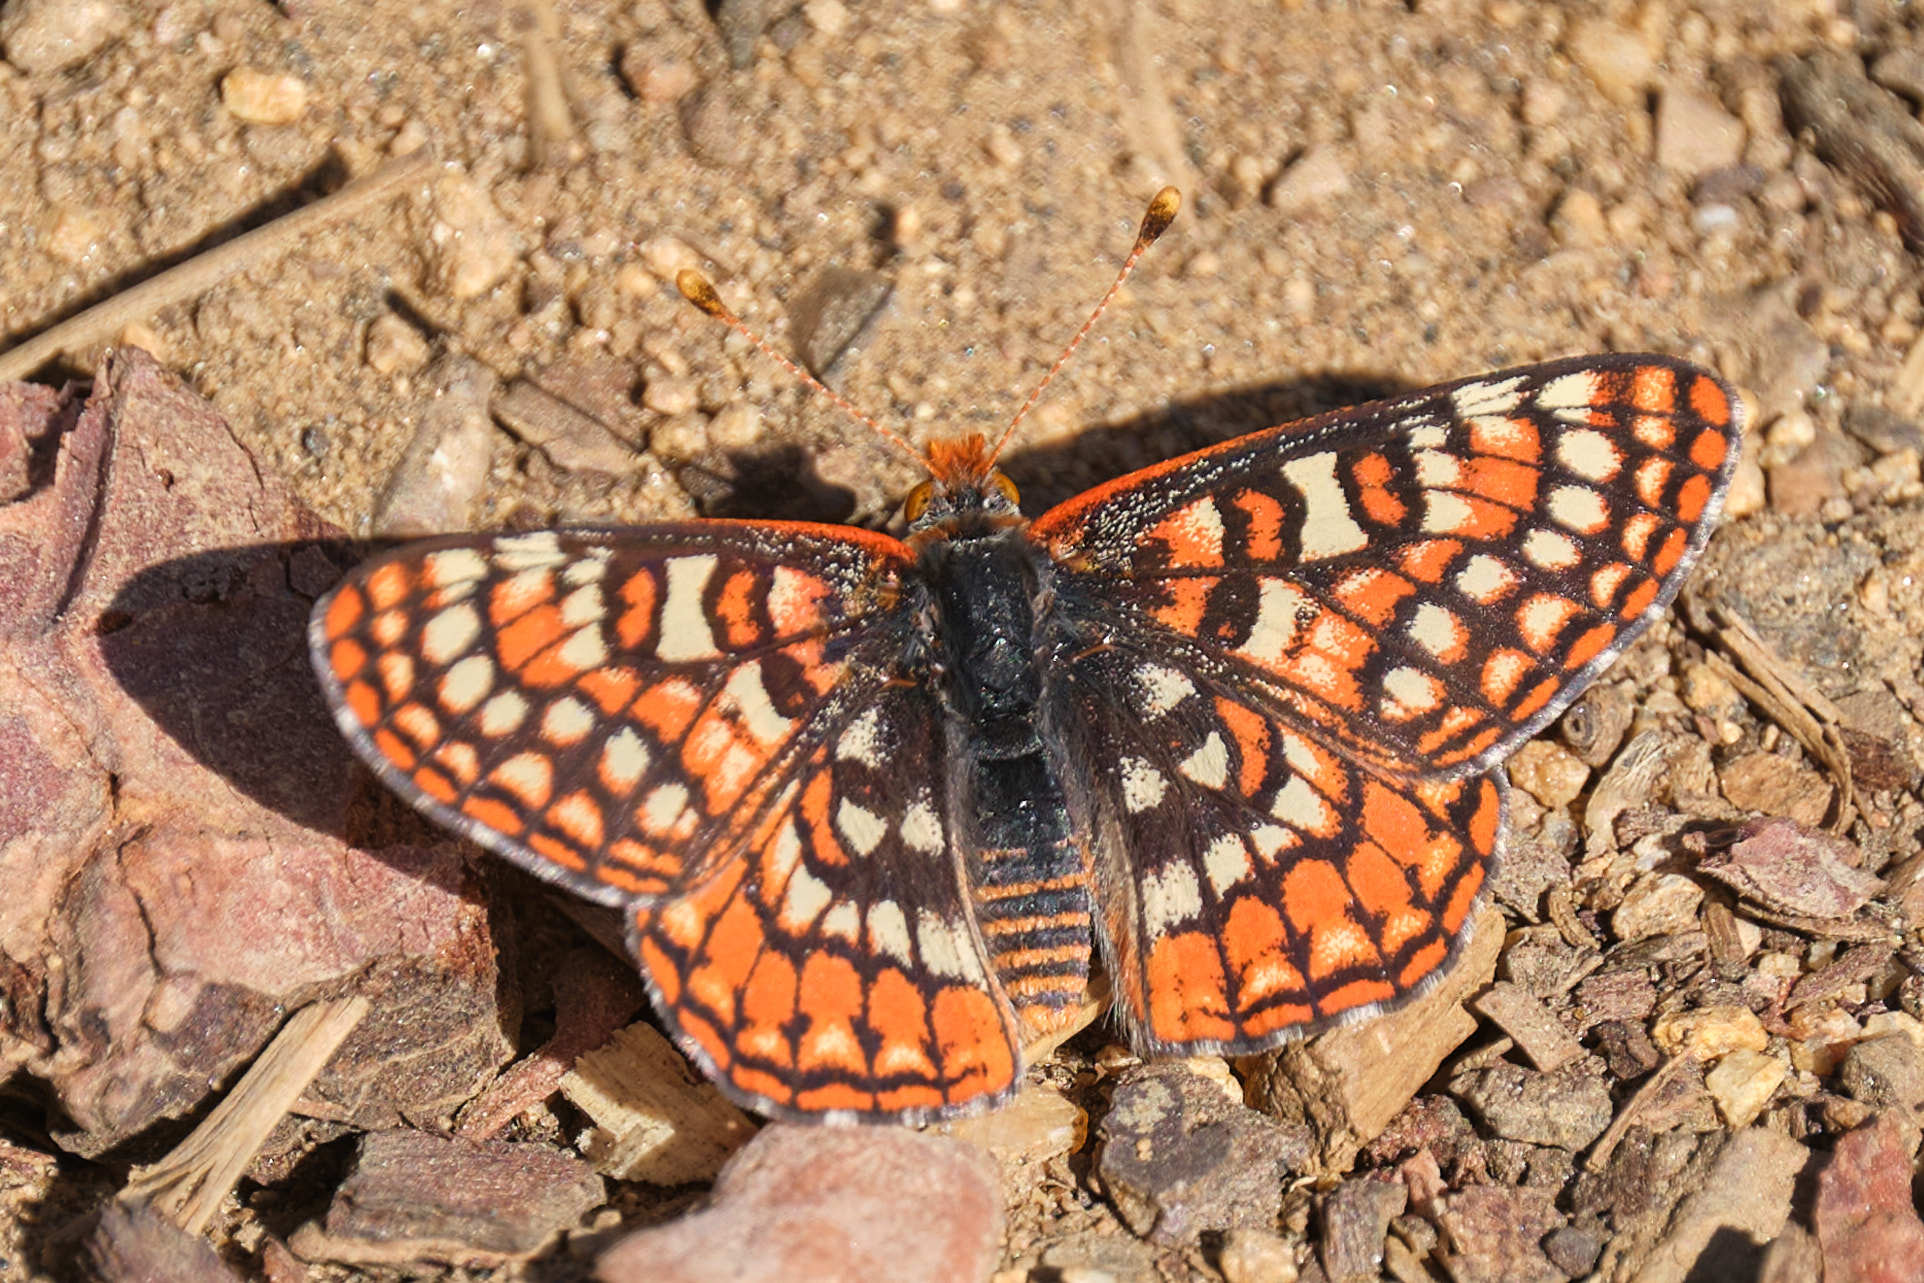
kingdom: Animalia
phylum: Arthropoda
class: Insecta
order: Lepidoptera
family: Nymphalidae
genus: Occidryas
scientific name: Occidryas editha
